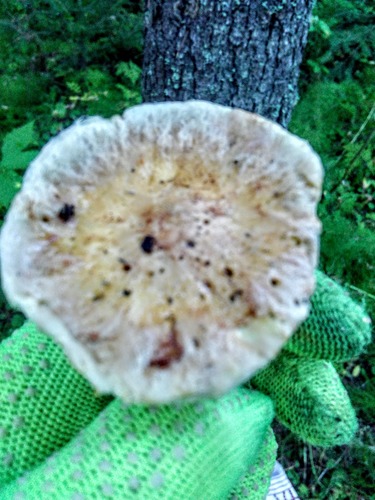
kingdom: Fungi
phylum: Basidiomycota
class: Agaricomycetes
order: Boletales
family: Suillaceae
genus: Suillus
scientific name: Suillus acidus
